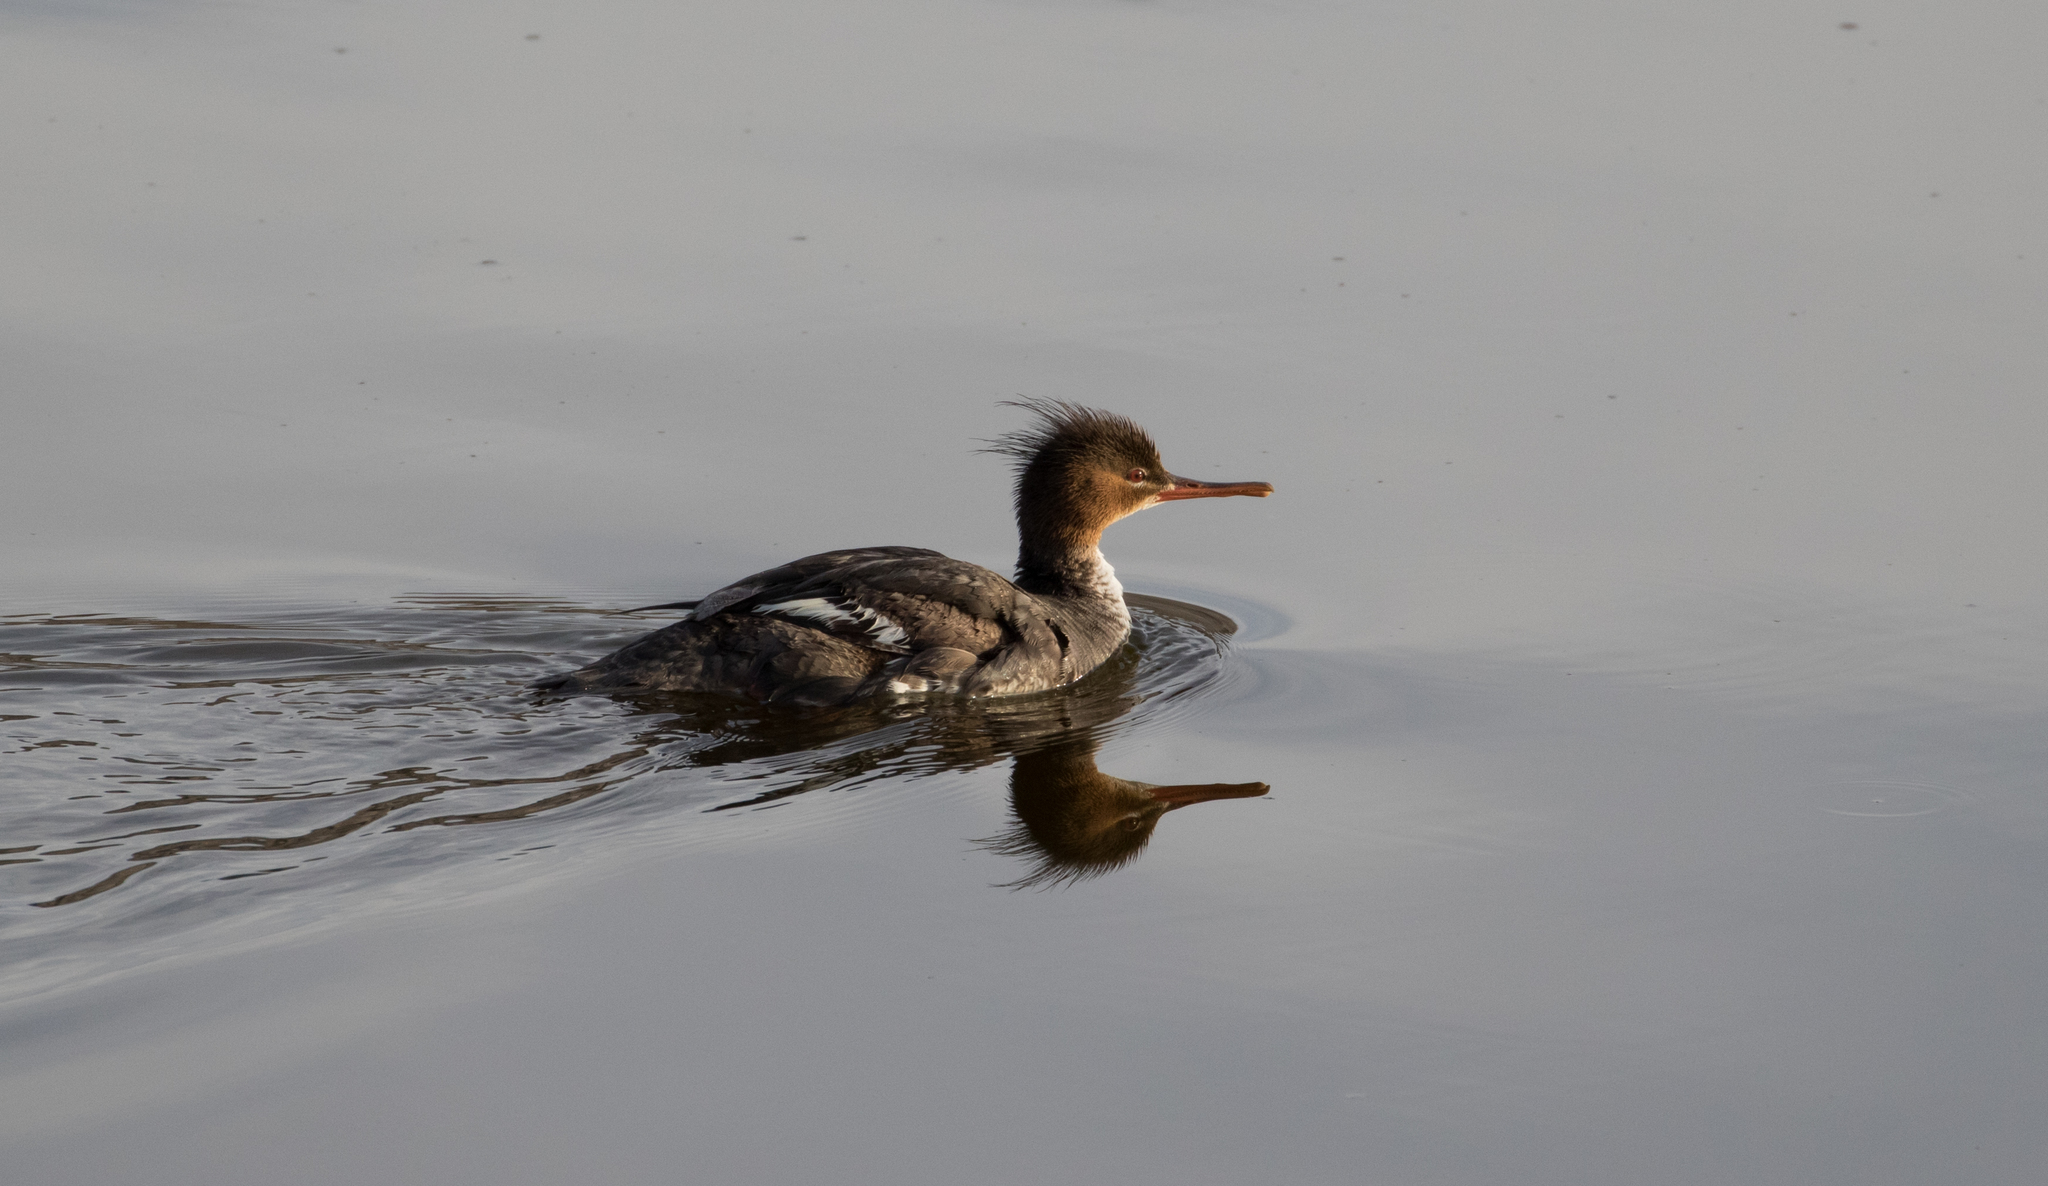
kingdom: Animalia
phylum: Chordata
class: Aves
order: Anseriformes
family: Anatidae
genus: Mergus
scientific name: Mergus serrator
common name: Red-breasted merganser
